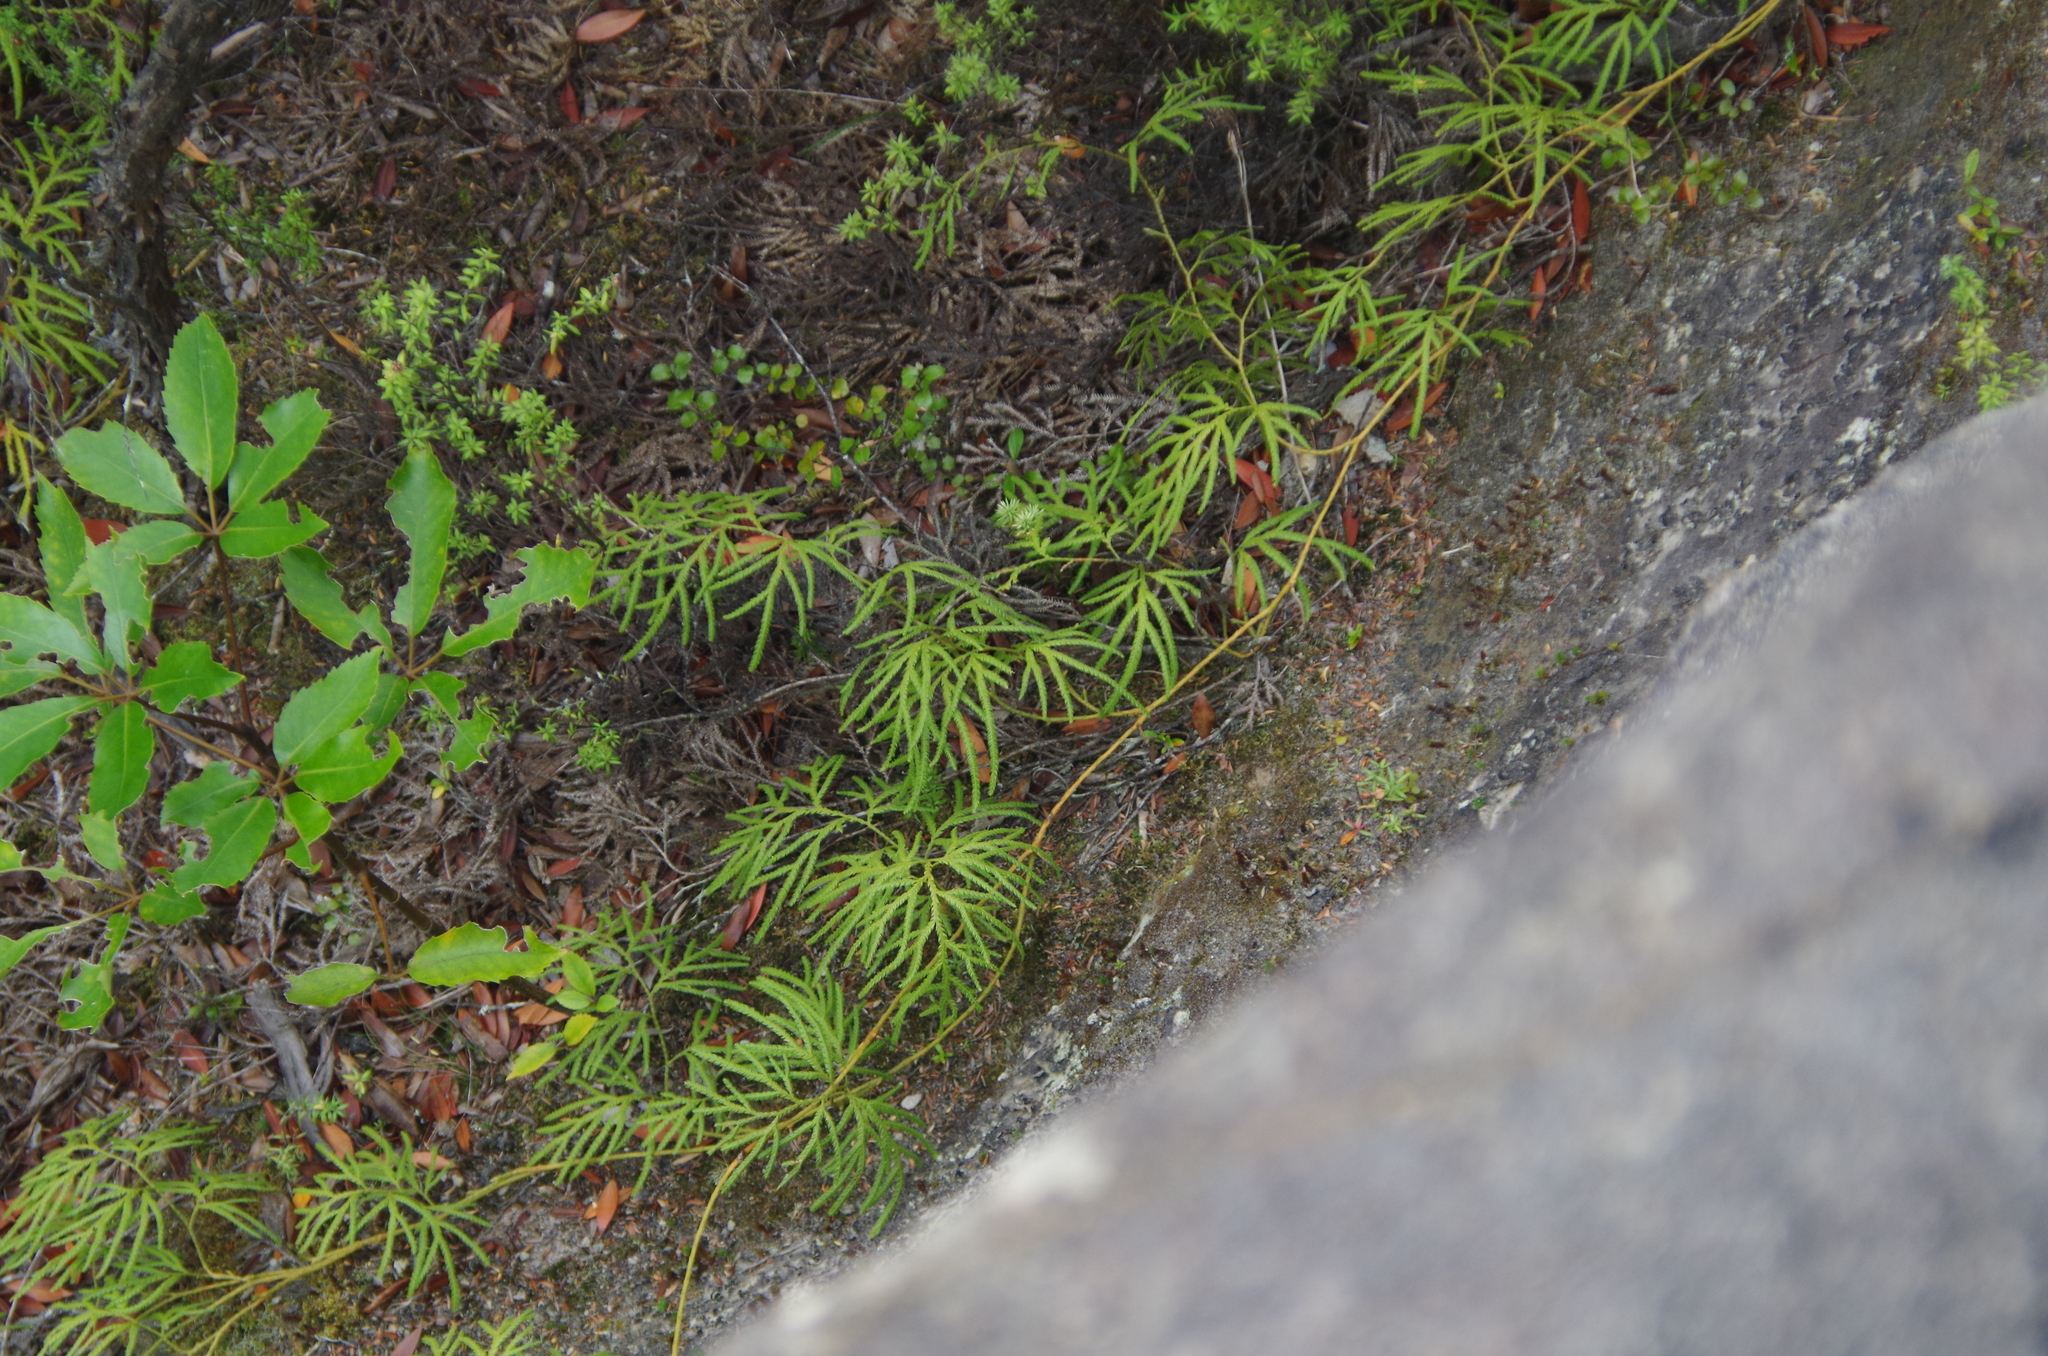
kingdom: Plantae
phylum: Tracheophyta
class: Lycopodiopsida
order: Lycopodiales
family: Lycopodiaceae
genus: Lycopodium
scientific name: Lycopodium volubile
